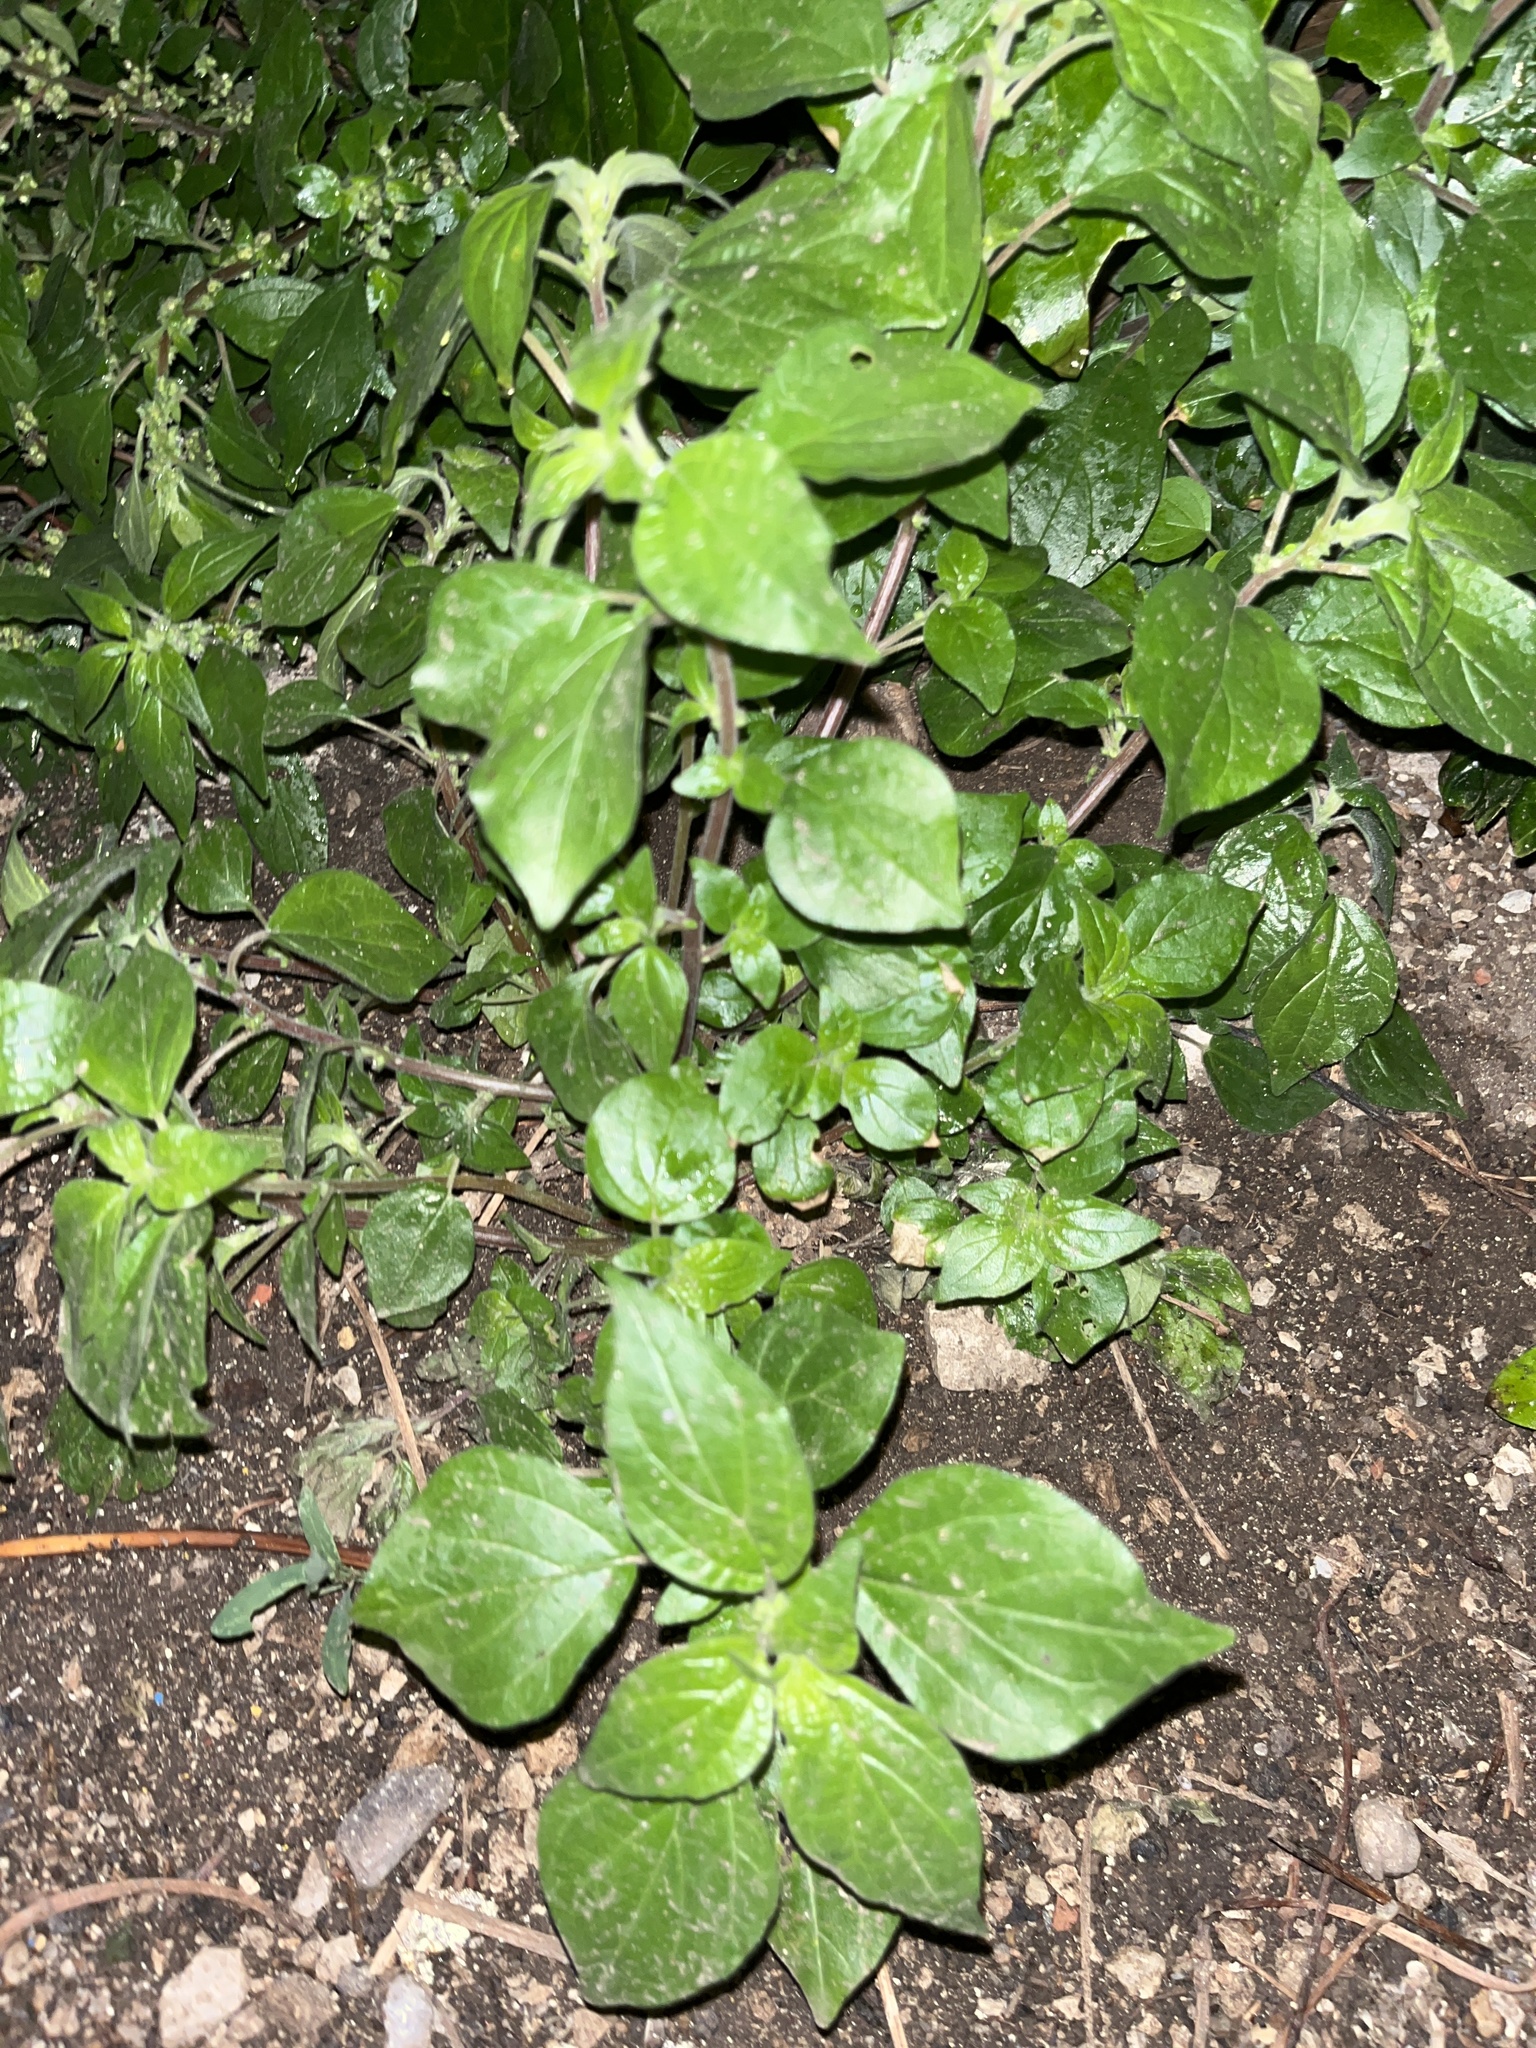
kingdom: Plantae
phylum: Tracheophyta
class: Magnoliopsida
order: Rosales
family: Urticaceae
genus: Parietaria
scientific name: Parietaria judaica
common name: Pellitory-of-the-wall
